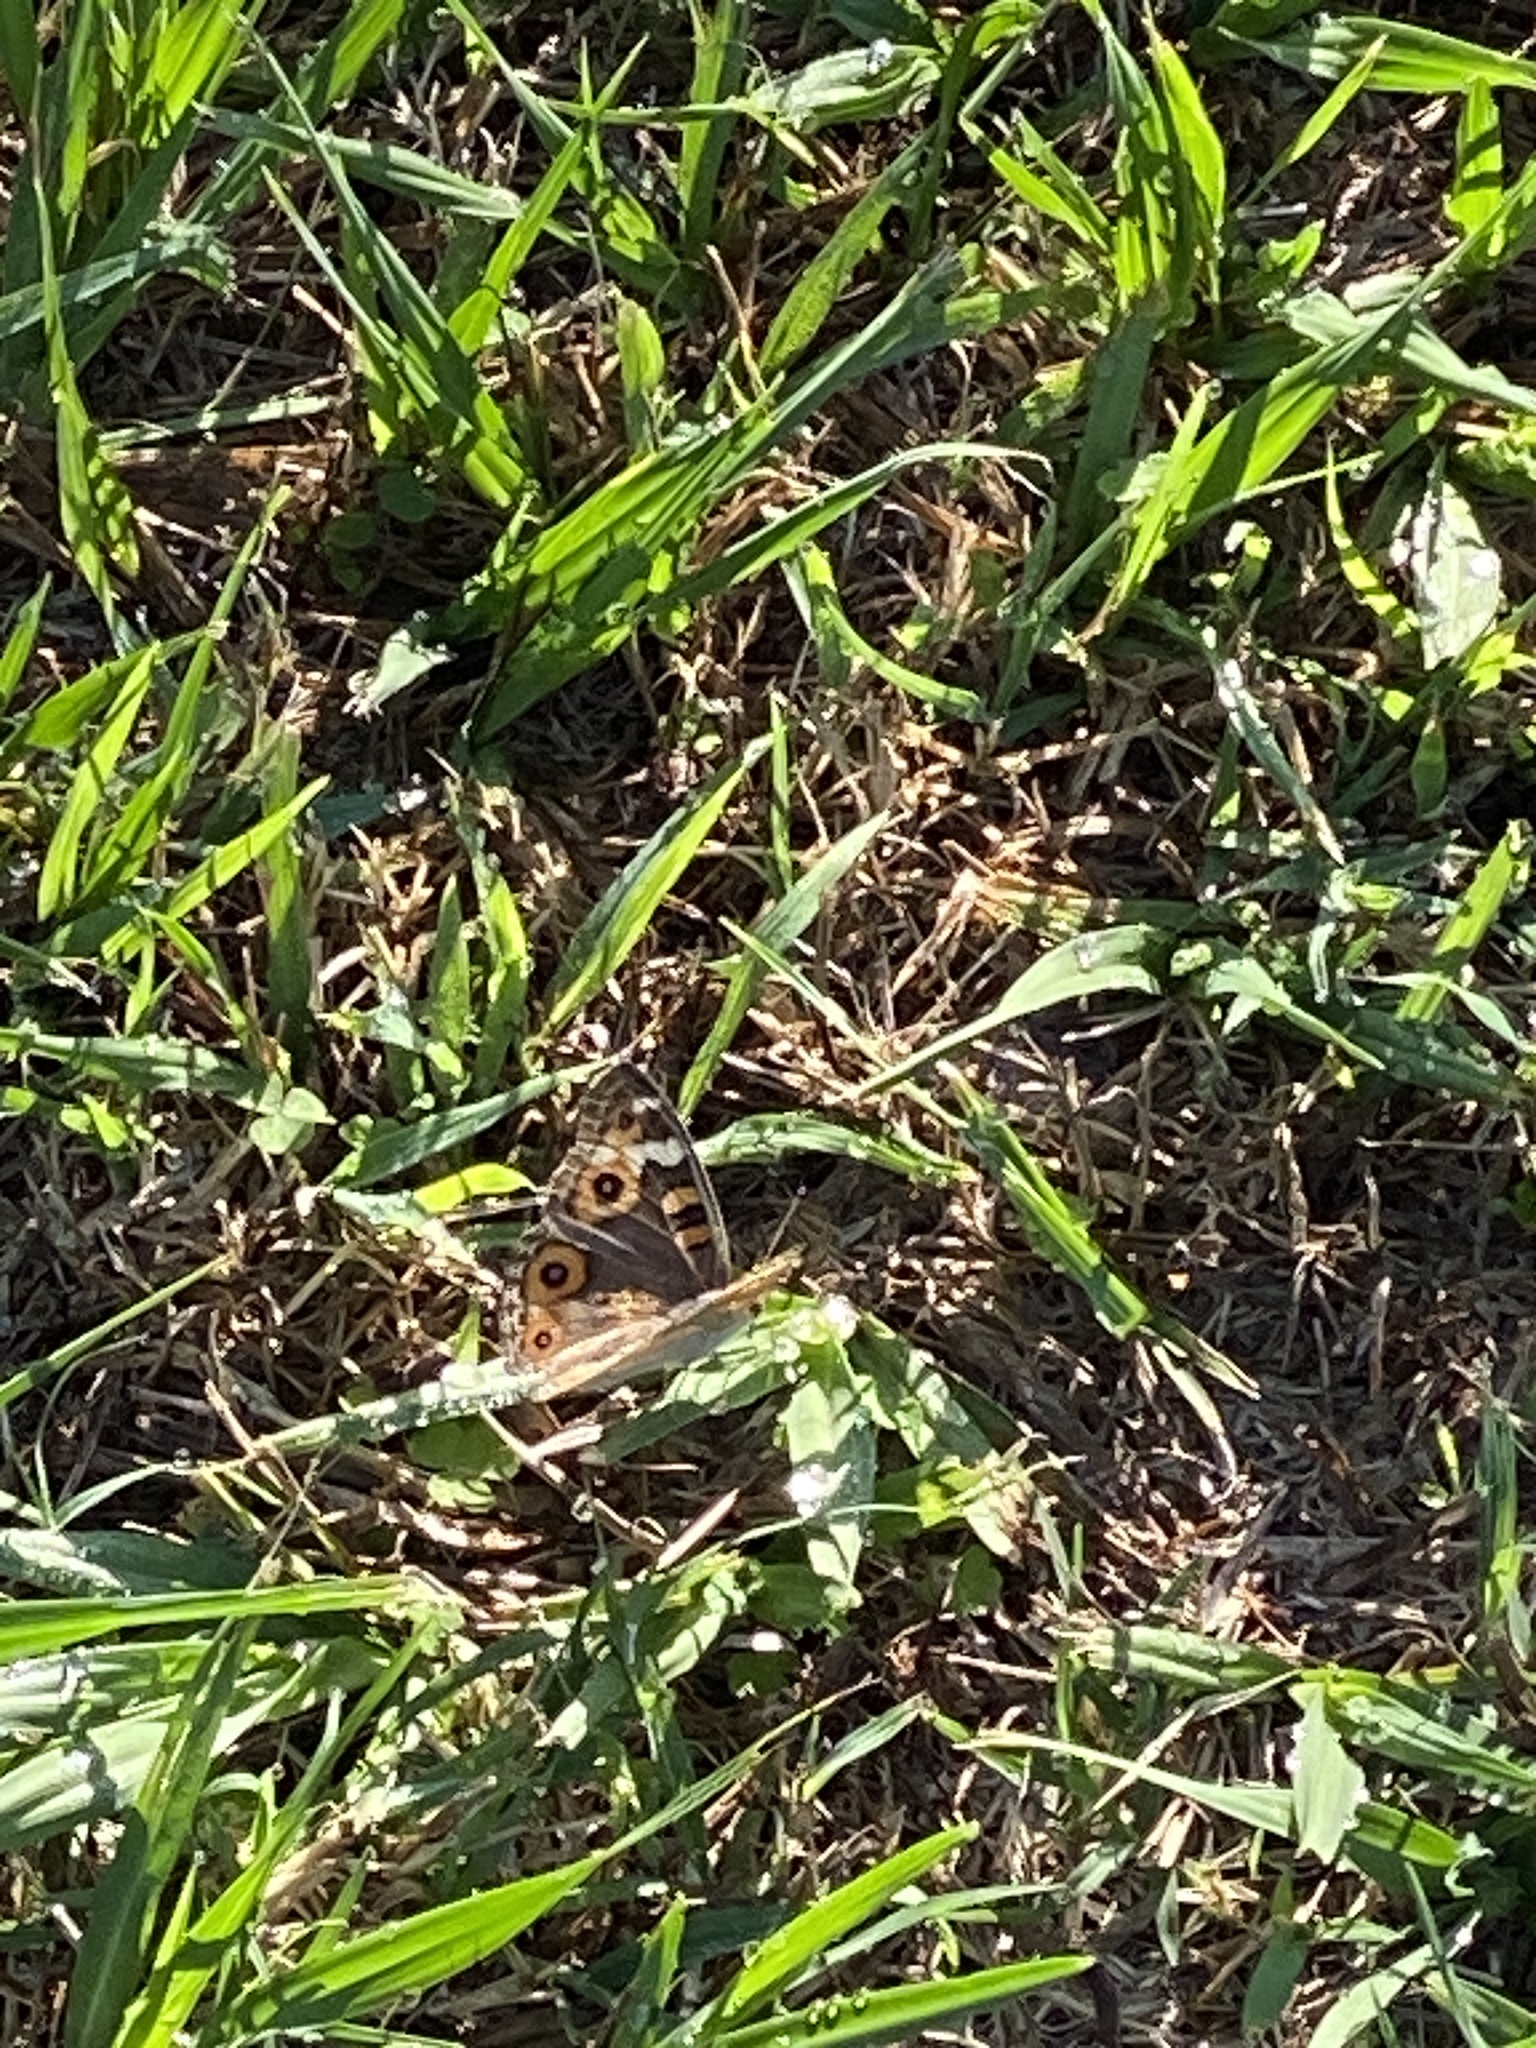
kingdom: Animalia
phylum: Arthropoda
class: Insecta
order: Lepidoptera
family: Nymphalidae
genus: Junonia
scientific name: Junonia villida
